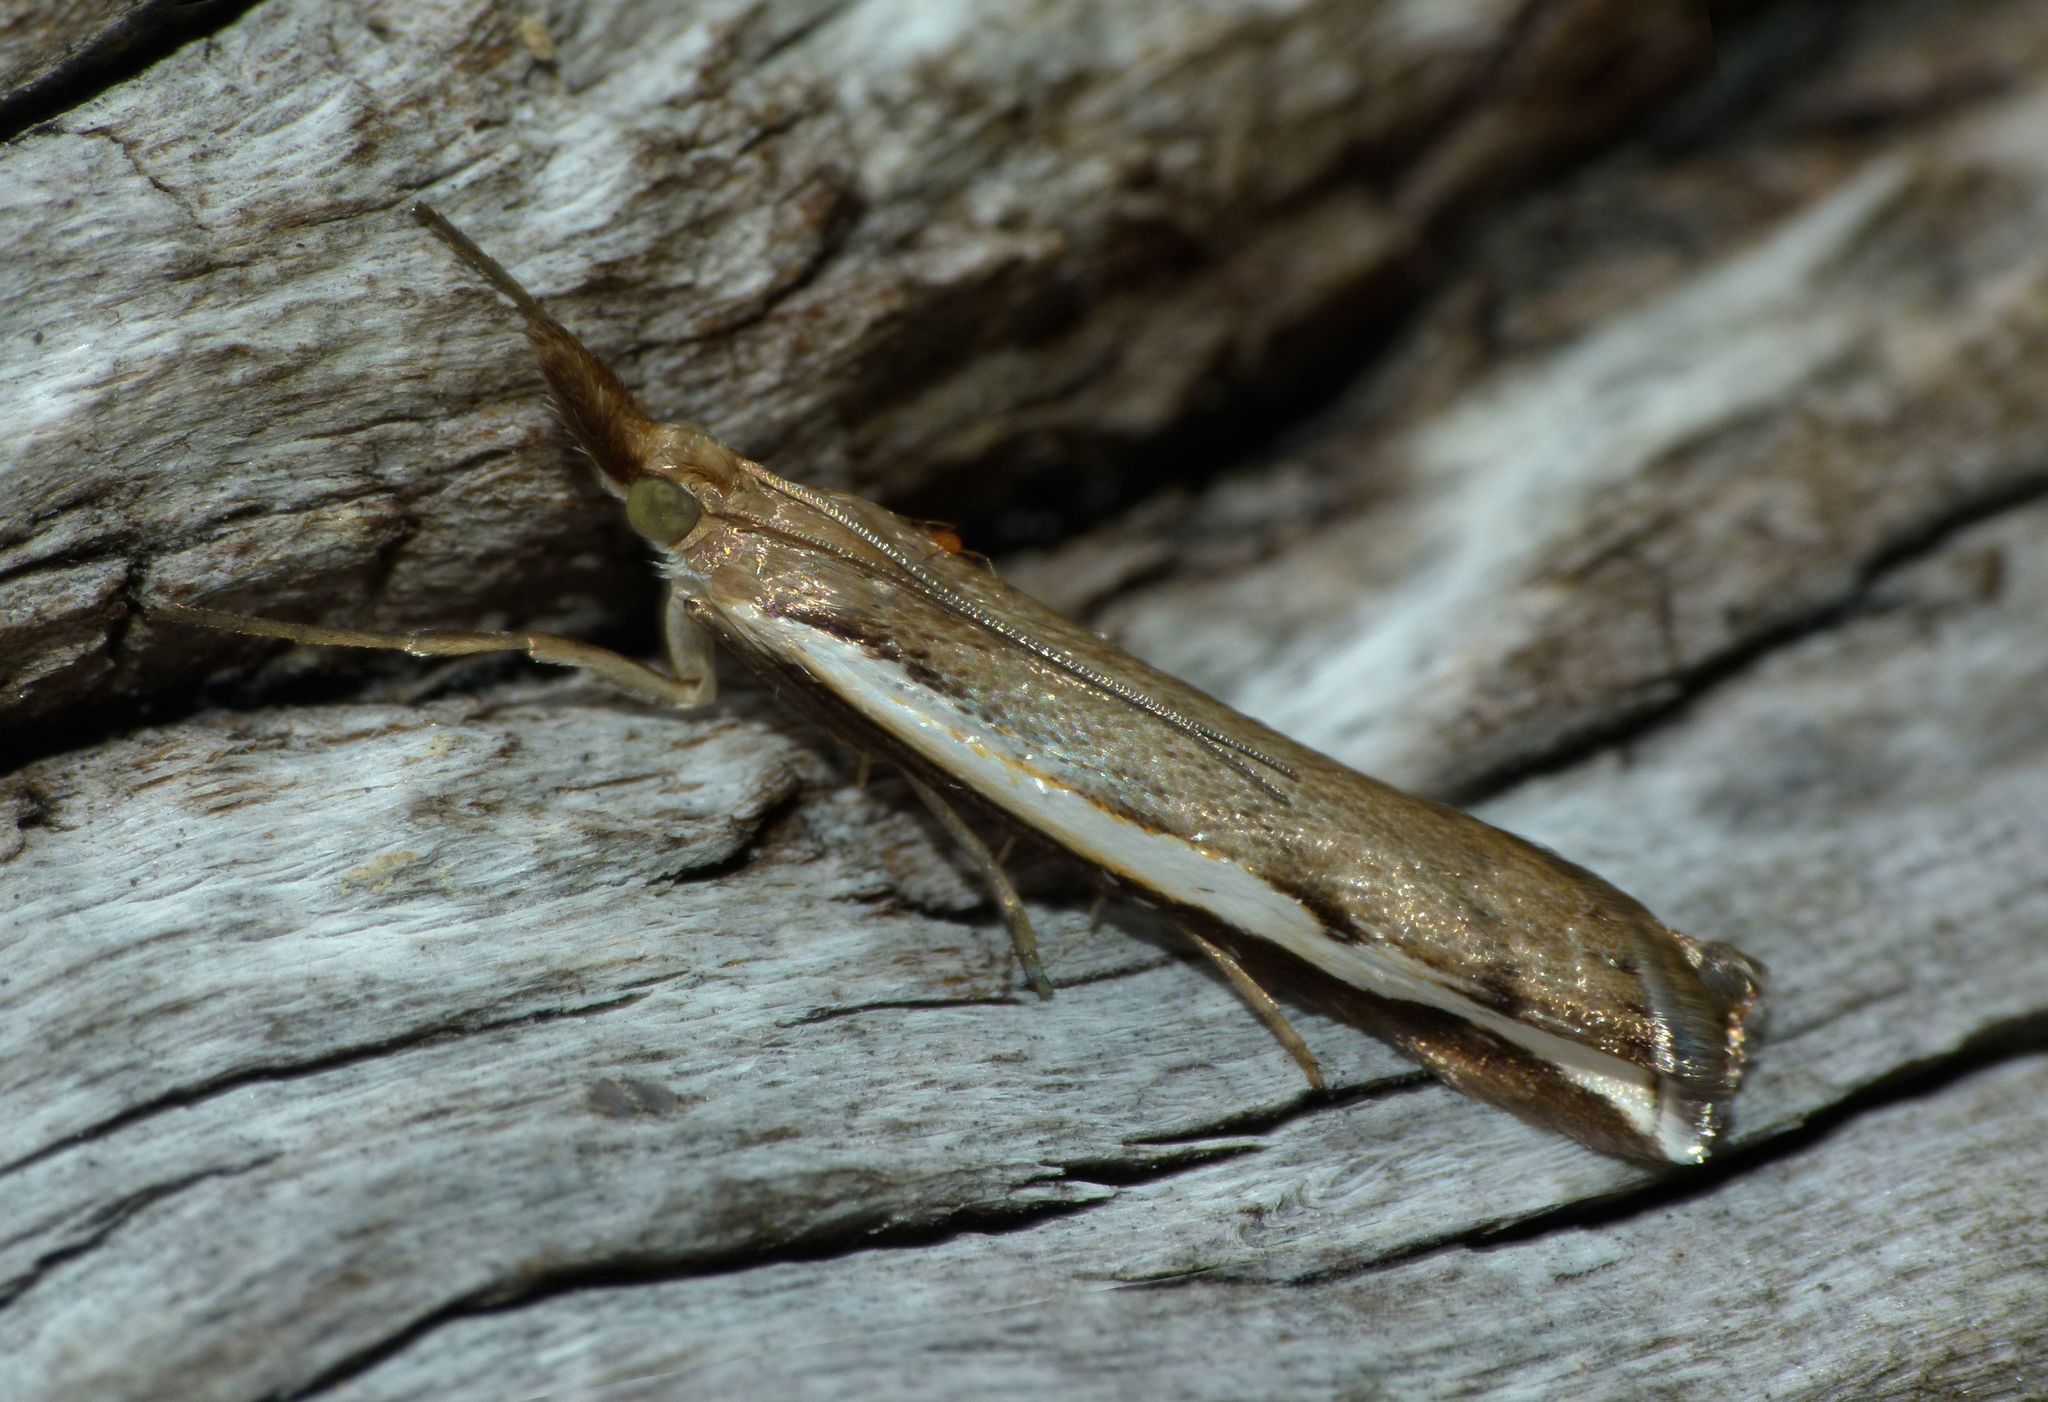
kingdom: Animalia
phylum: Arthropoda
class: Insecta
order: Lepidoptera
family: Crambidae
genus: Orocrambus
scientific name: Orocrambus flexuosellus
